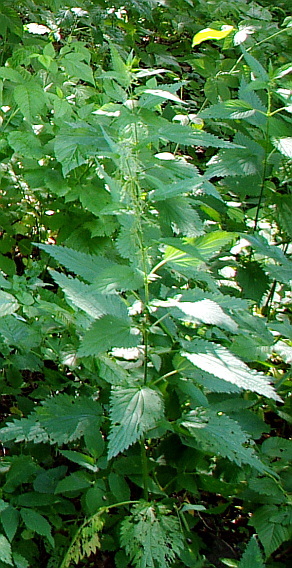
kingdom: Plantae
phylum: Tracheophyta
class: Magnoliopsida
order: Rosales
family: Urticaceae
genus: Urtica
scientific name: Urtica dioica
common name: Common nettle
